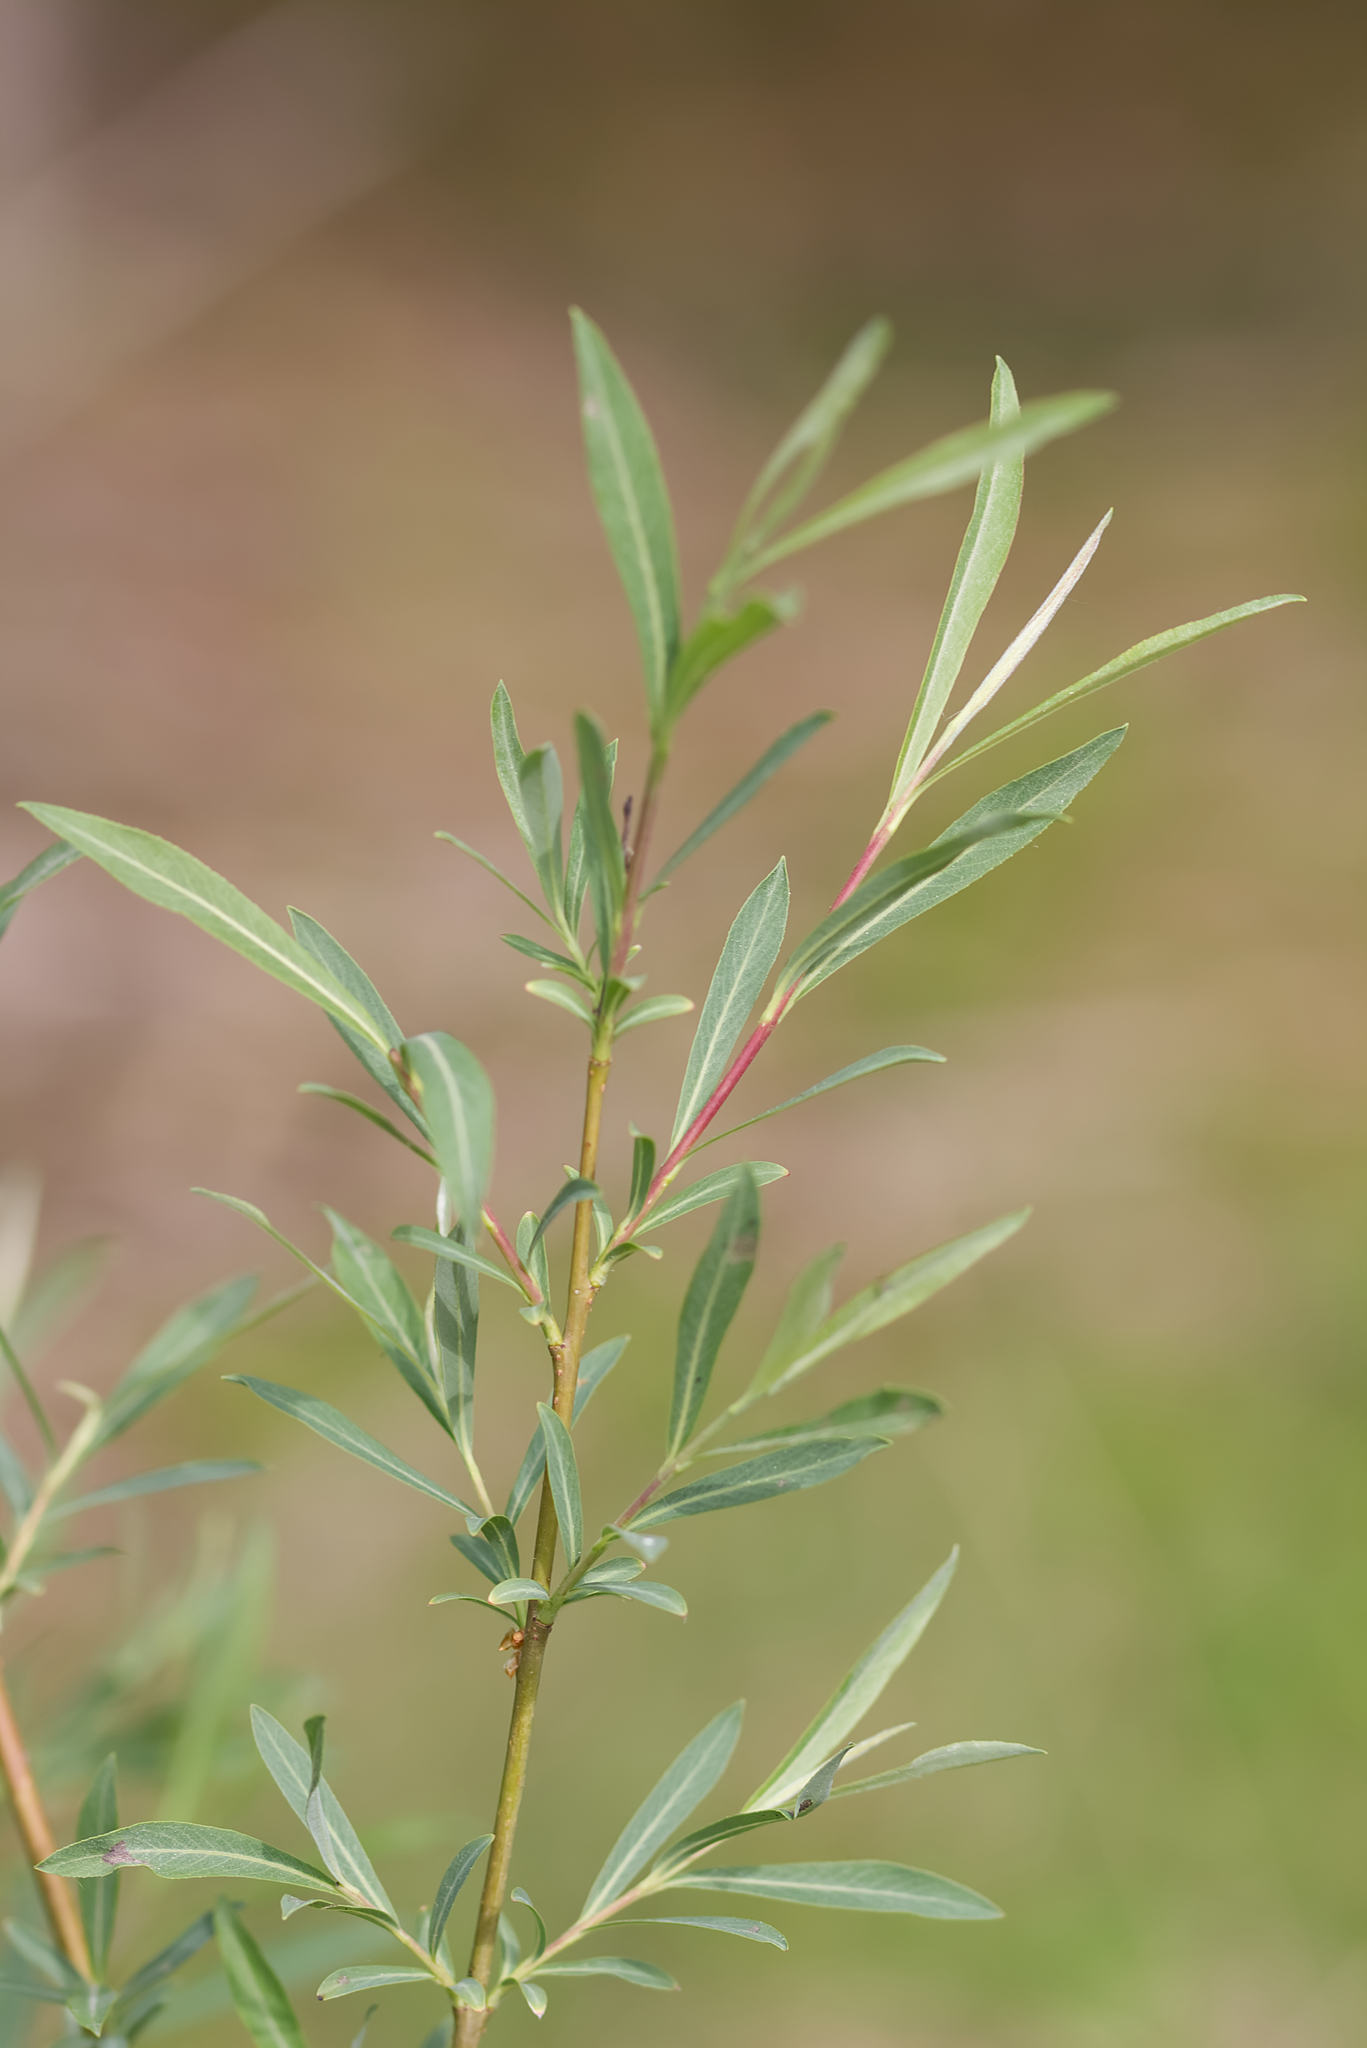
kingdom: Plantae
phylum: Tracheophyta
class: Magnoliopsida
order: Malpighiales
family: Salicaceae
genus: Salix
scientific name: Salix purpurea
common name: Purple willow
